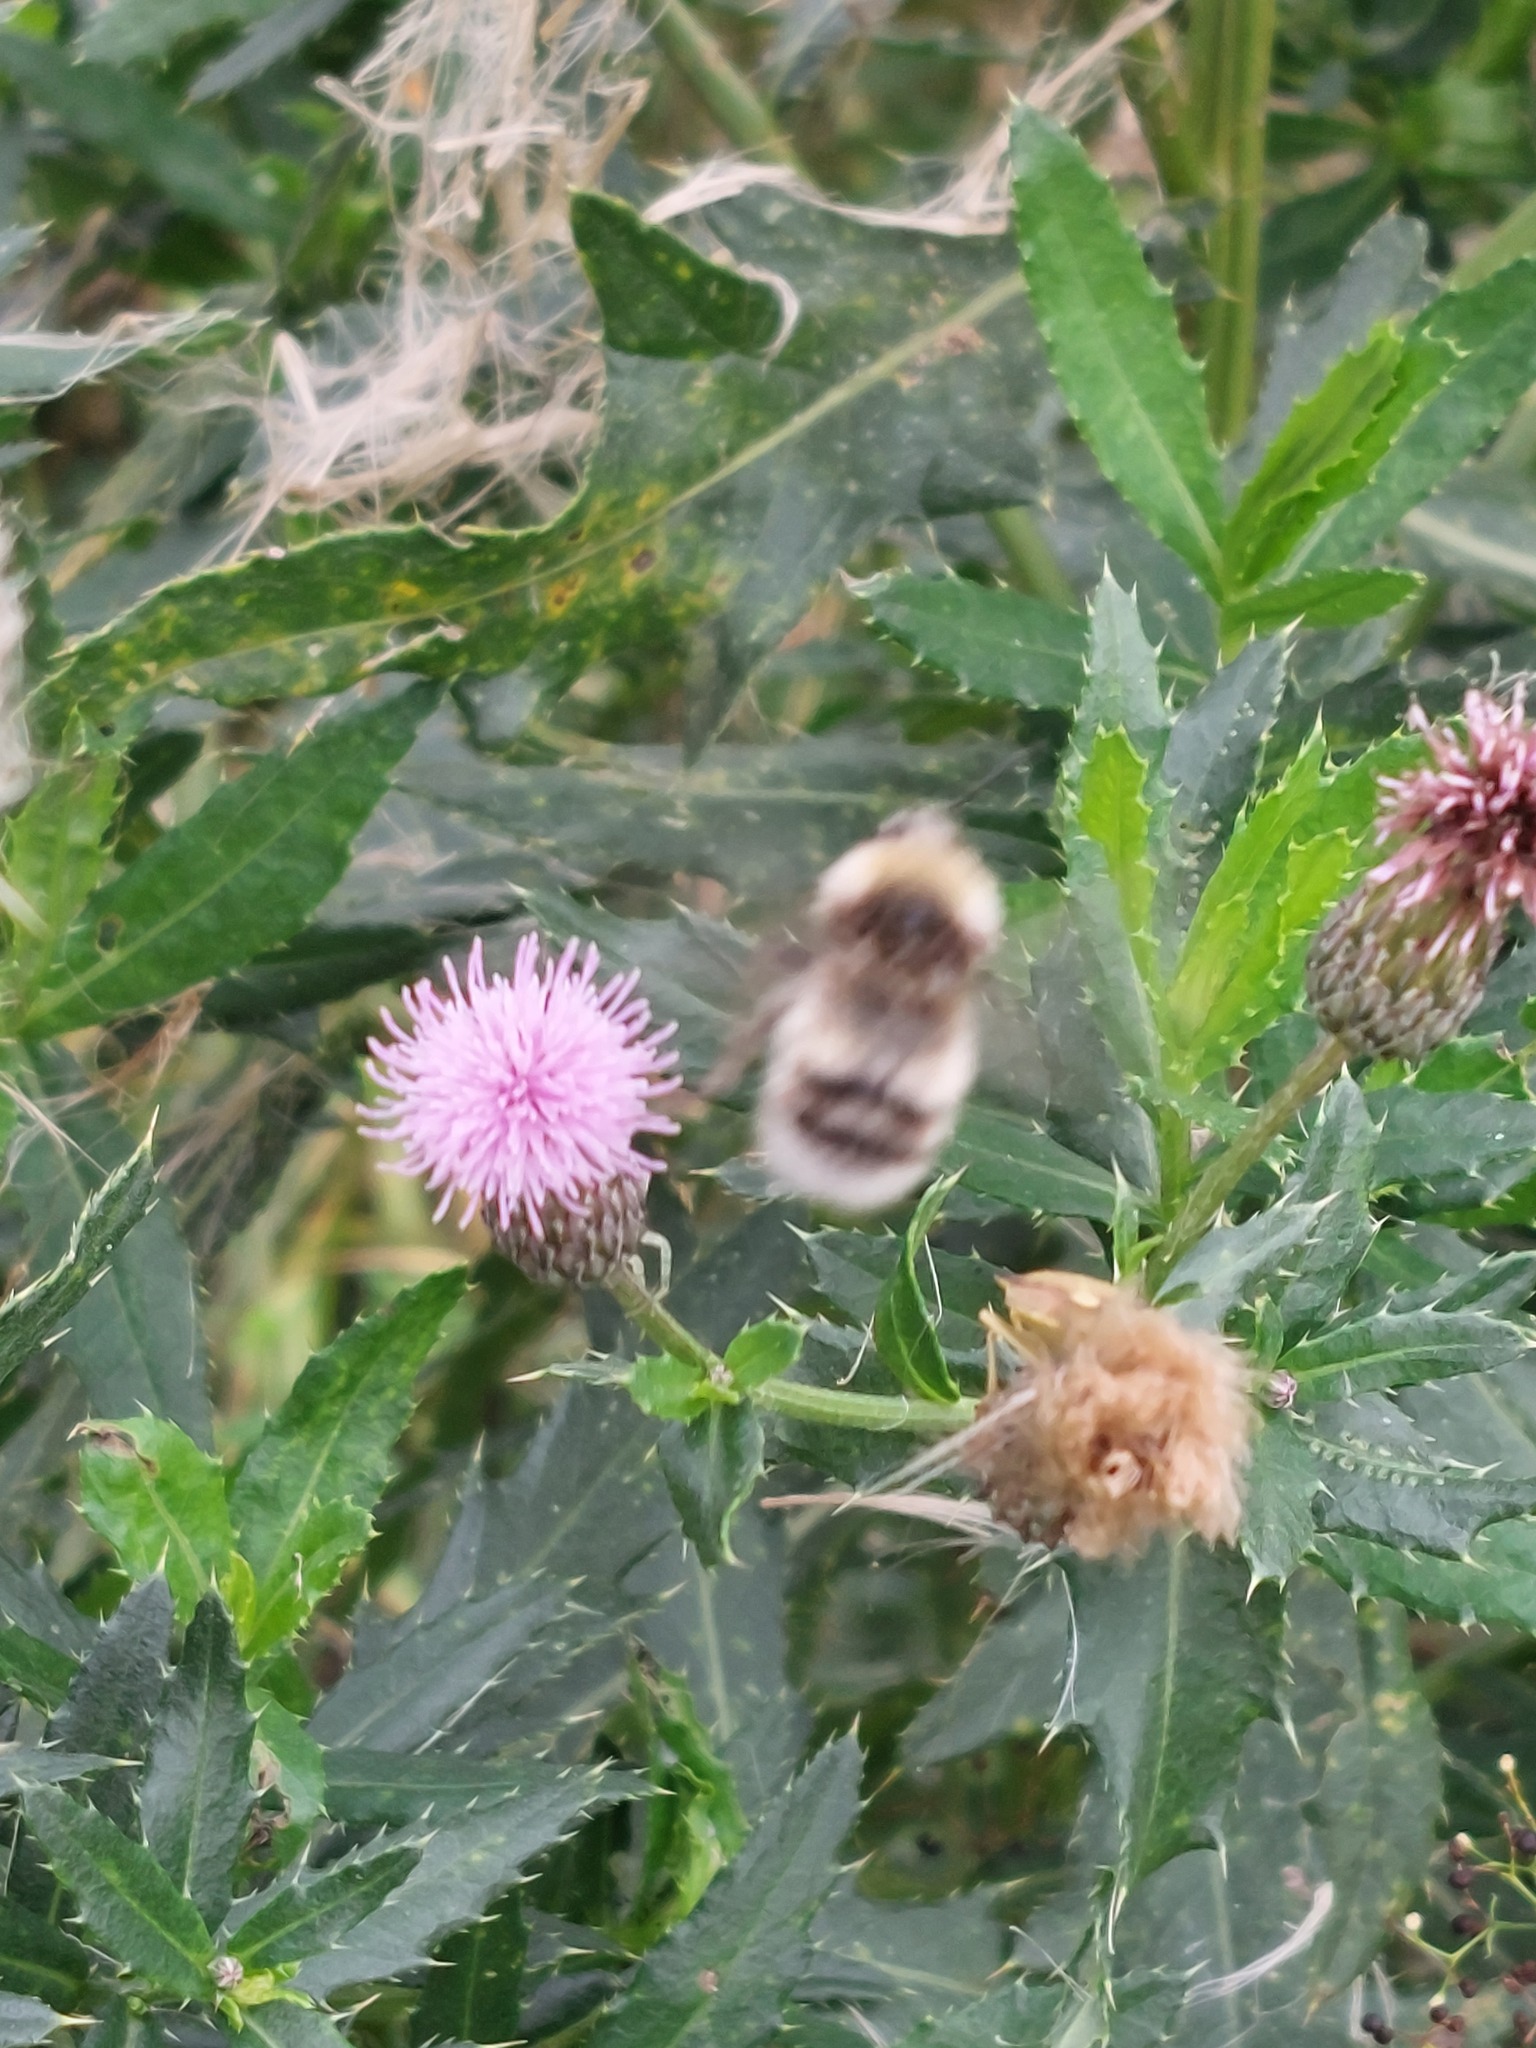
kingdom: Animalia
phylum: Arthropoda
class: Insecta
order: Hymenoptera
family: Apidae
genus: Bombus
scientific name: Bombus lucorum
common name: White-tailed bumblebee
